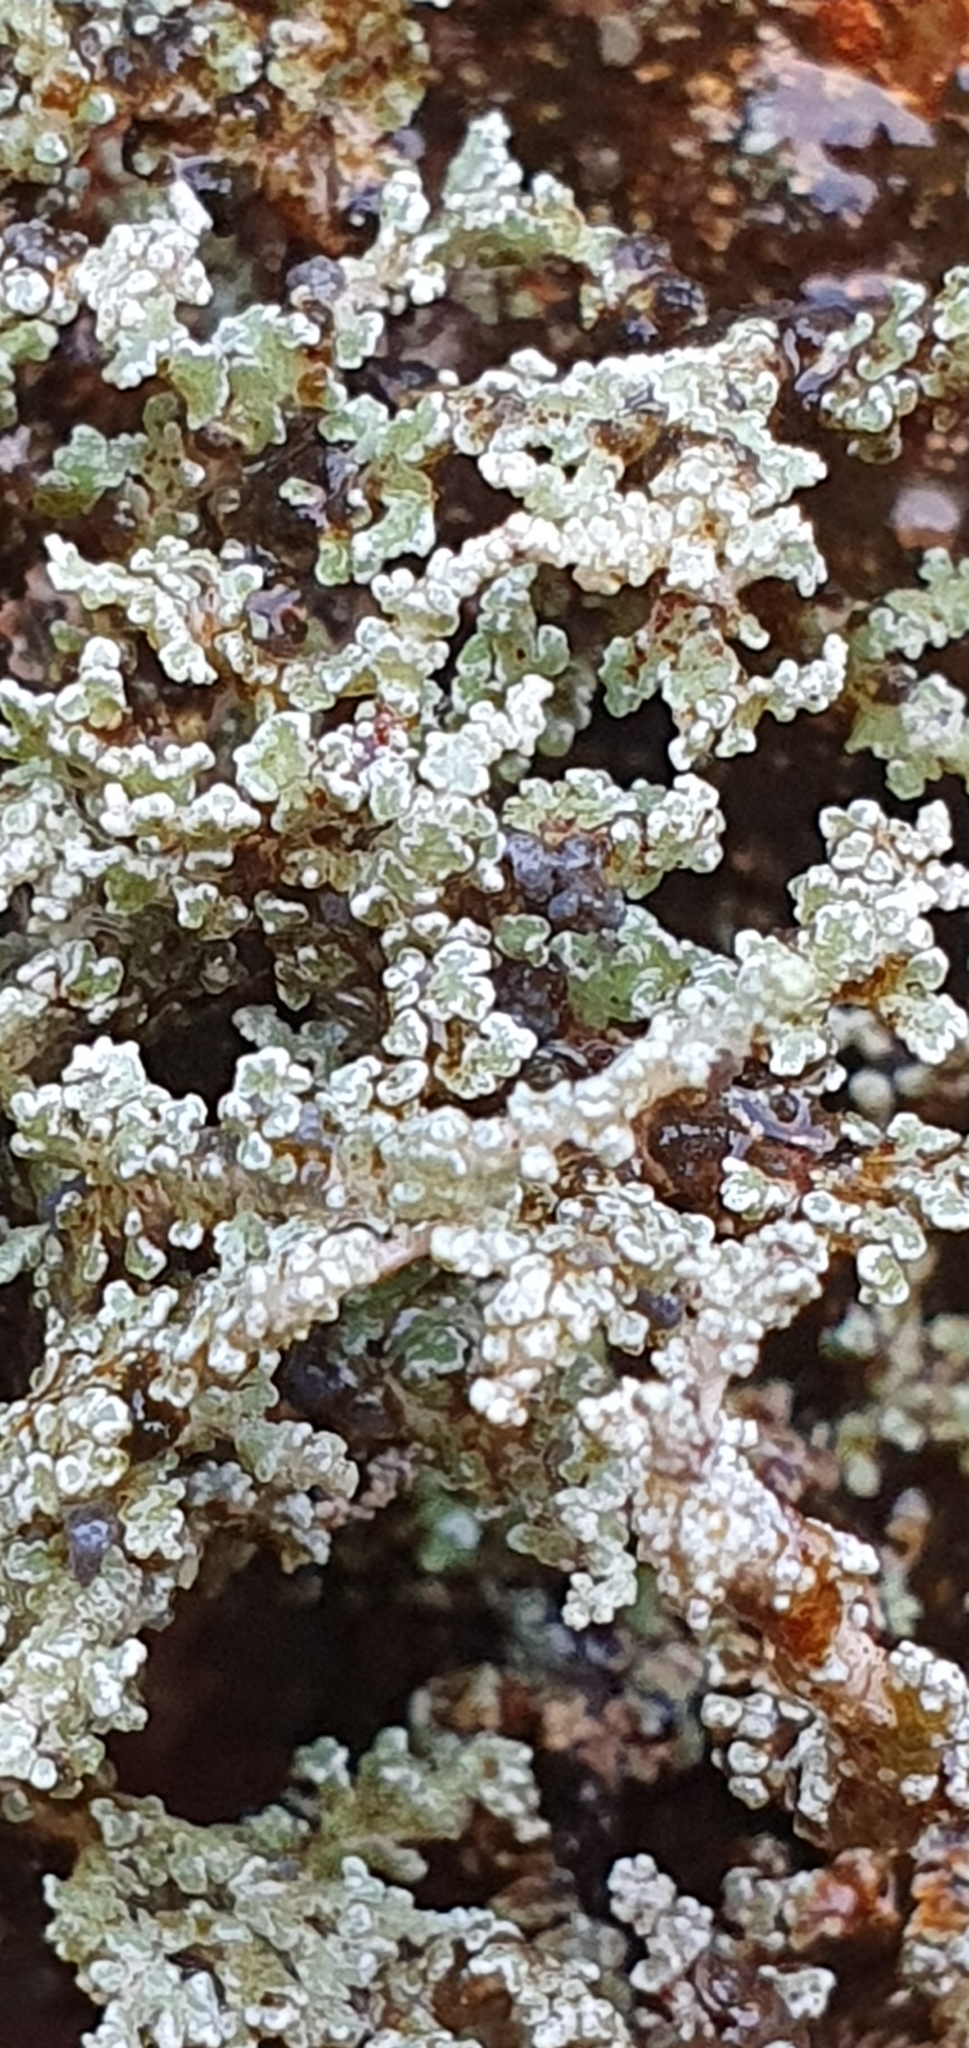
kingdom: Fungi
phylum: Ascomycota
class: Lecanoromycetes
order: Lecanorales
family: Stereocaulaceae
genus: Stereocaulon
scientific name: Stereocaulon vesuvianum
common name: Variegated foam lichen
